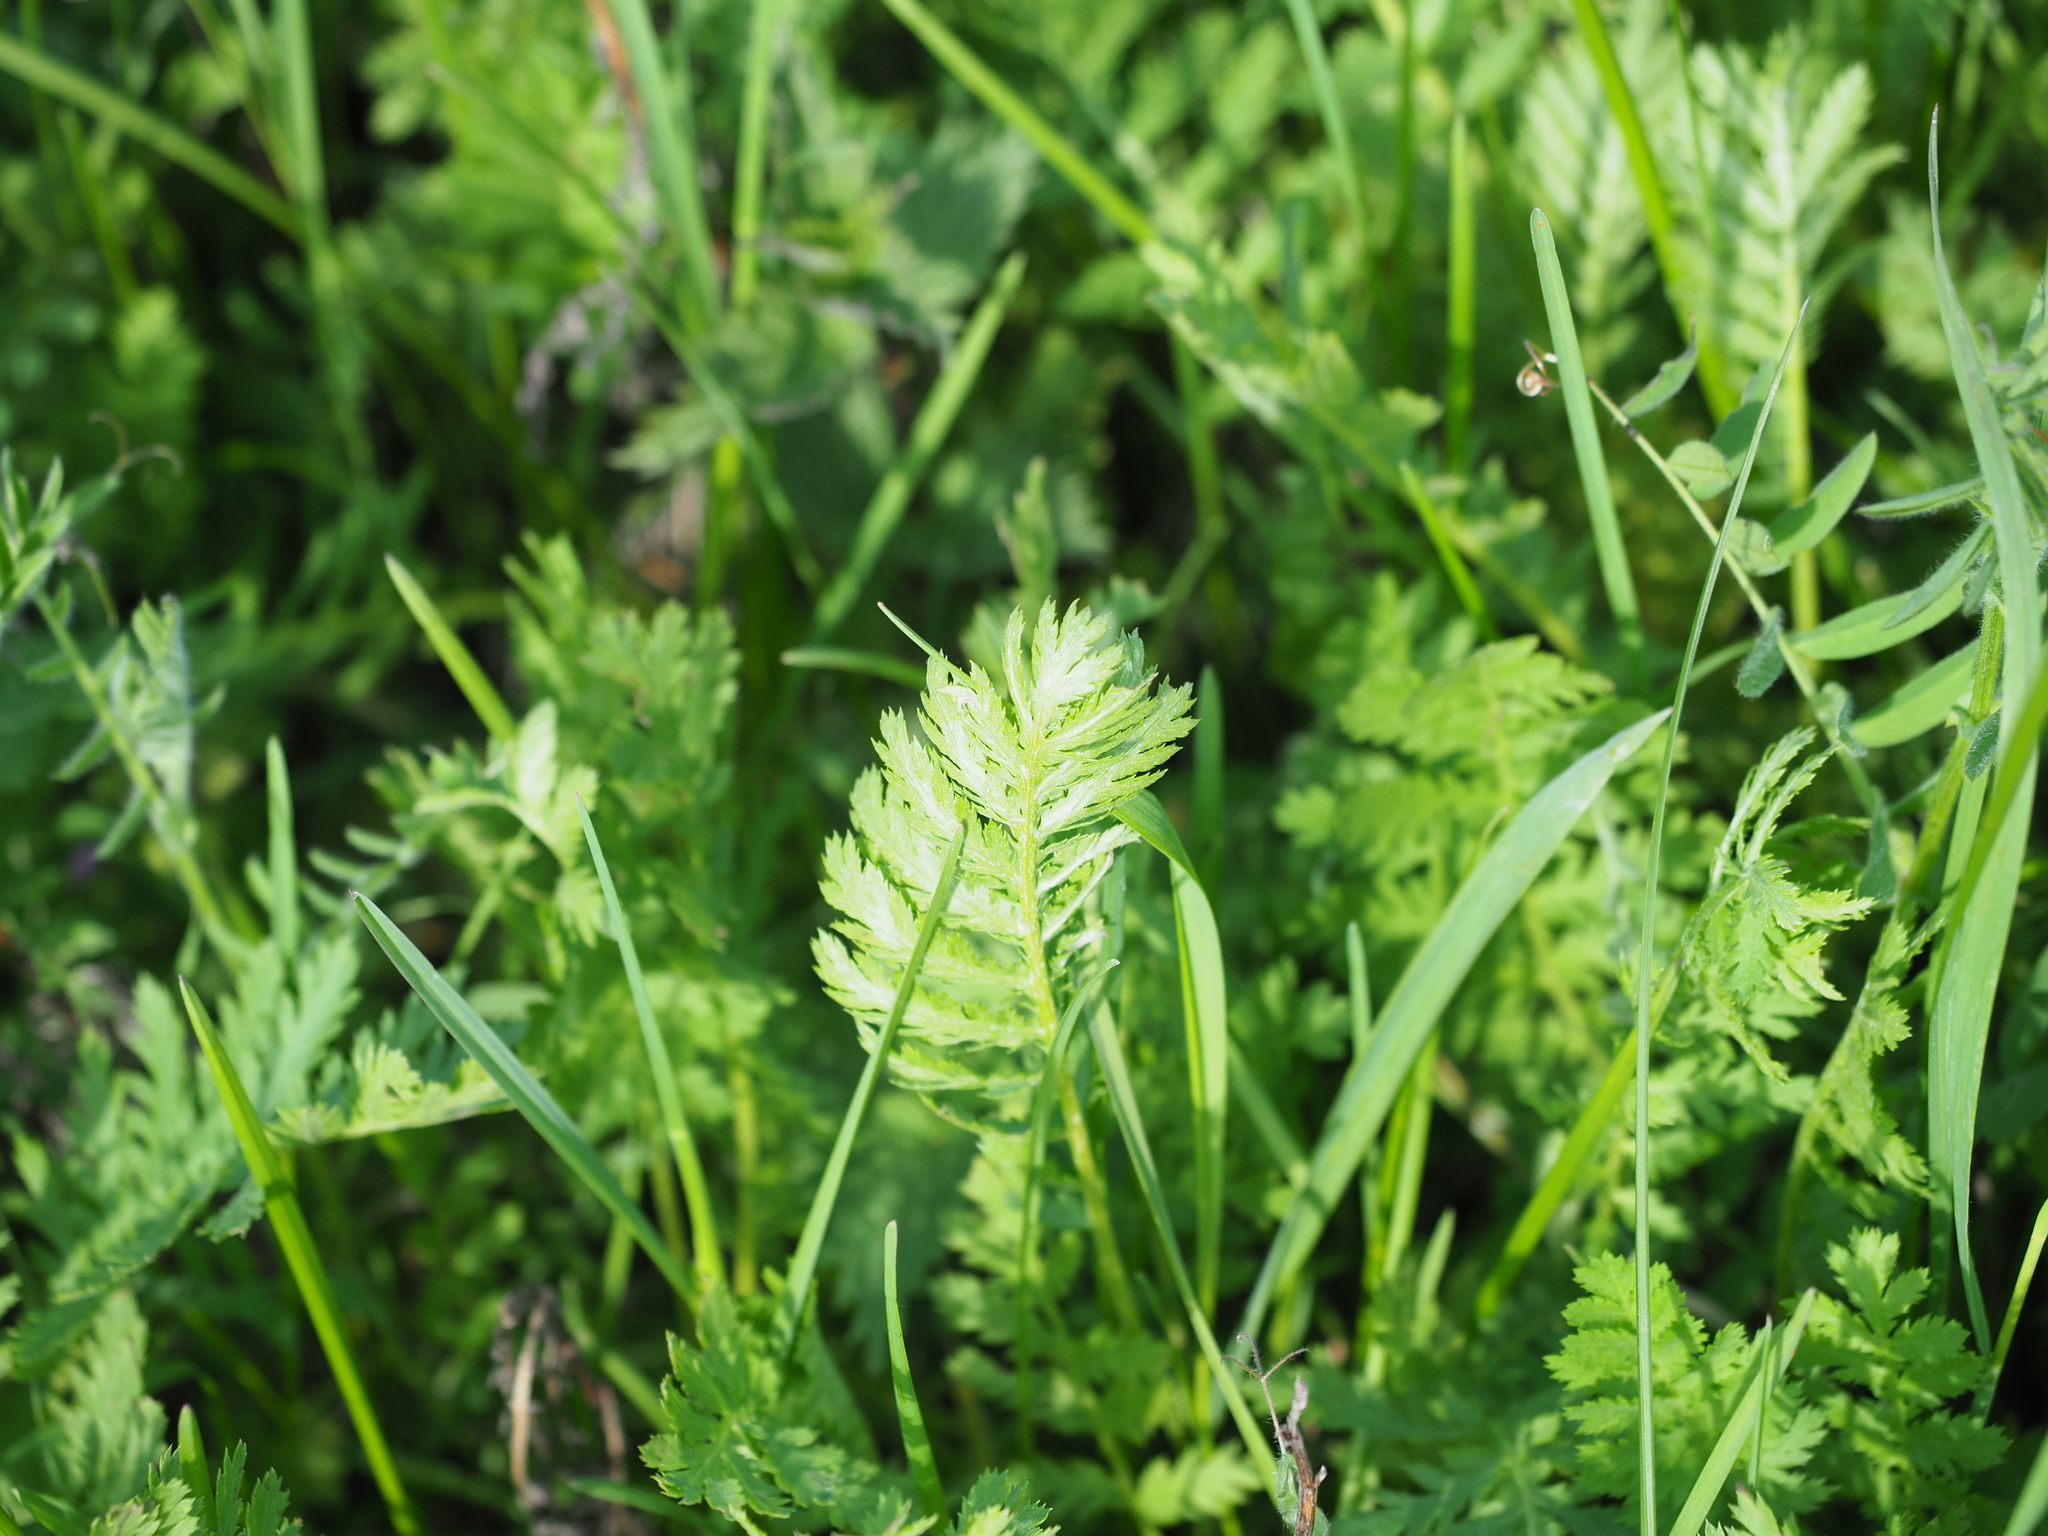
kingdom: Plantae
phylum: Tracheophyta
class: Magnoliopsida
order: Asterales
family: Asteraceae
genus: Tanacetum
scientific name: Tanacetum vulgare
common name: Common tansy
